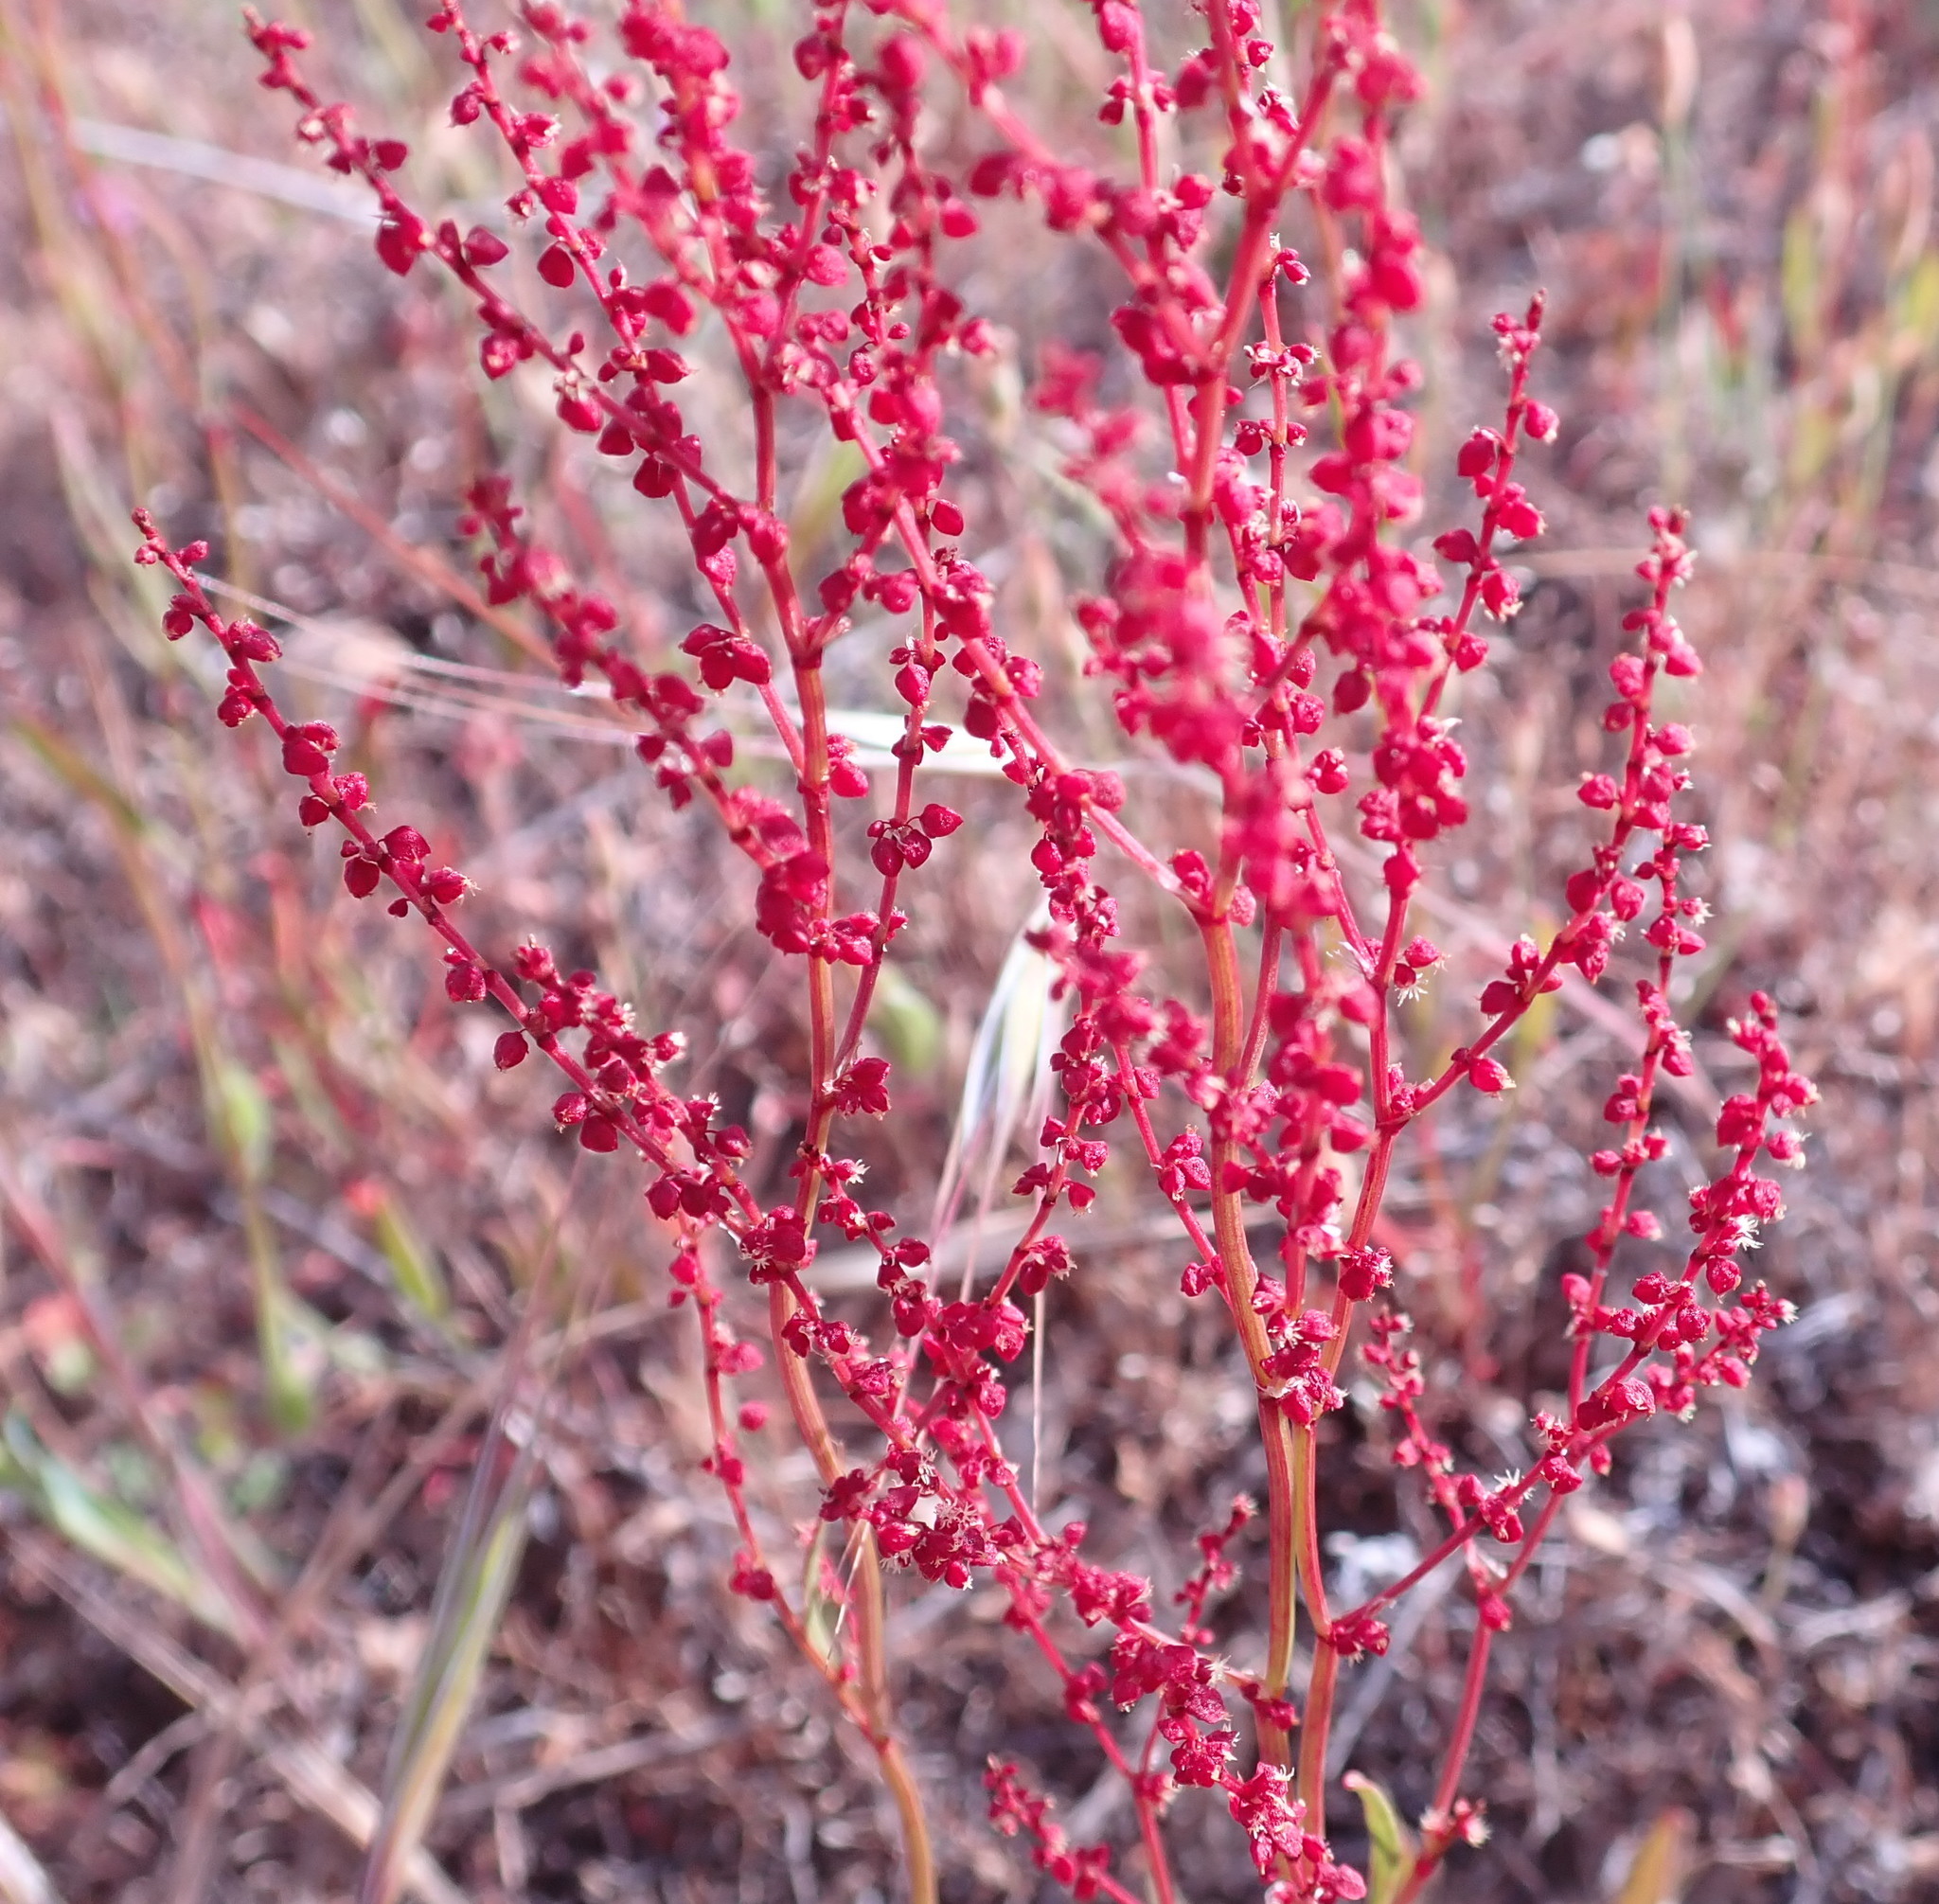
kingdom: Plantae
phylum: Tracheophyta
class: Magnoliopsida
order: Caryophyllales
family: Polygonaceae
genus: Rumex
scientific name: Rumex acetosella
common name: Common sheep sorrel
